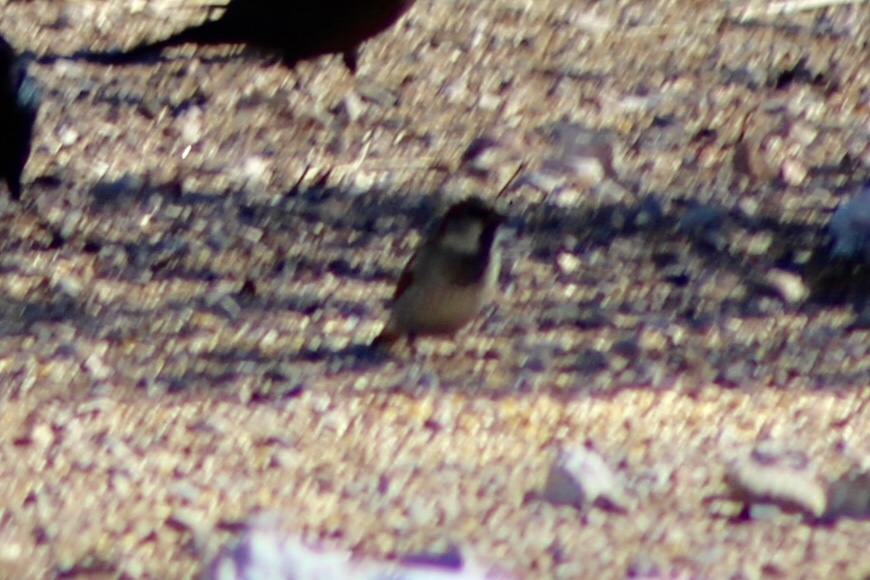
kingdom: Animalia
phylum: Chordata
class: Aves
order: Passeriformes
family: Passeridae
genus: Passer
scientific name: Passer domesticus
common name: House sparrow
